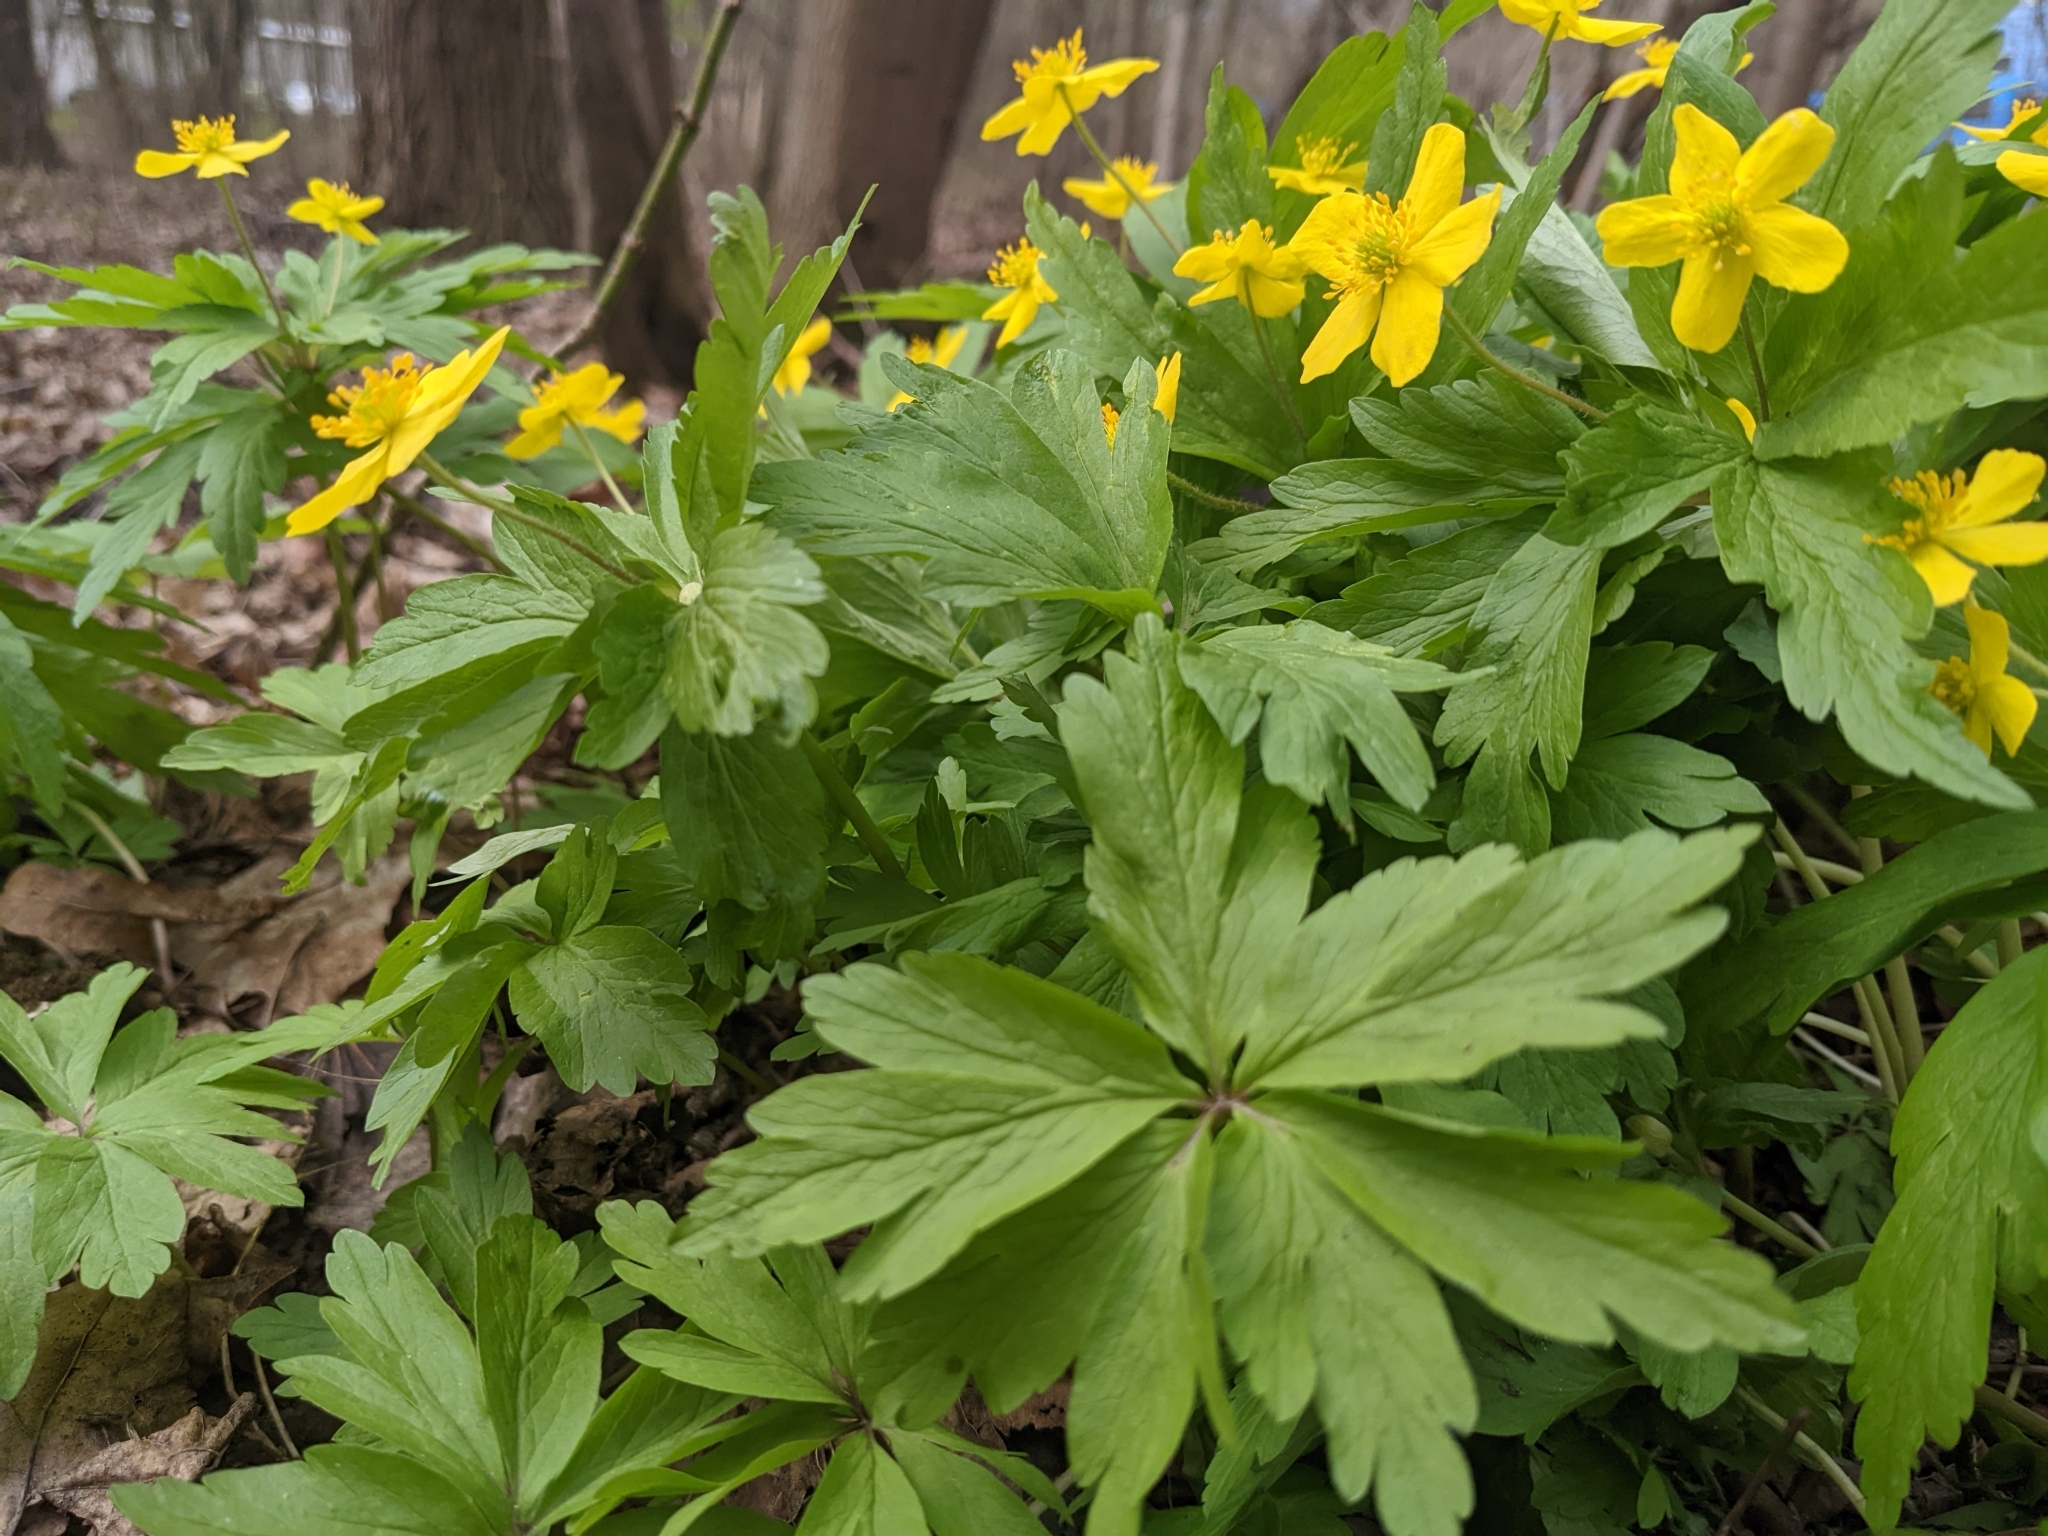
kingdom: Plantae
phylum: Tracheophyta
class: Magnoliopsida
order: Ranunculales
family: Ranunculaceae
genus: Anemone
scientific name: Anemone ranunculoides
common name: Yellow anemone
